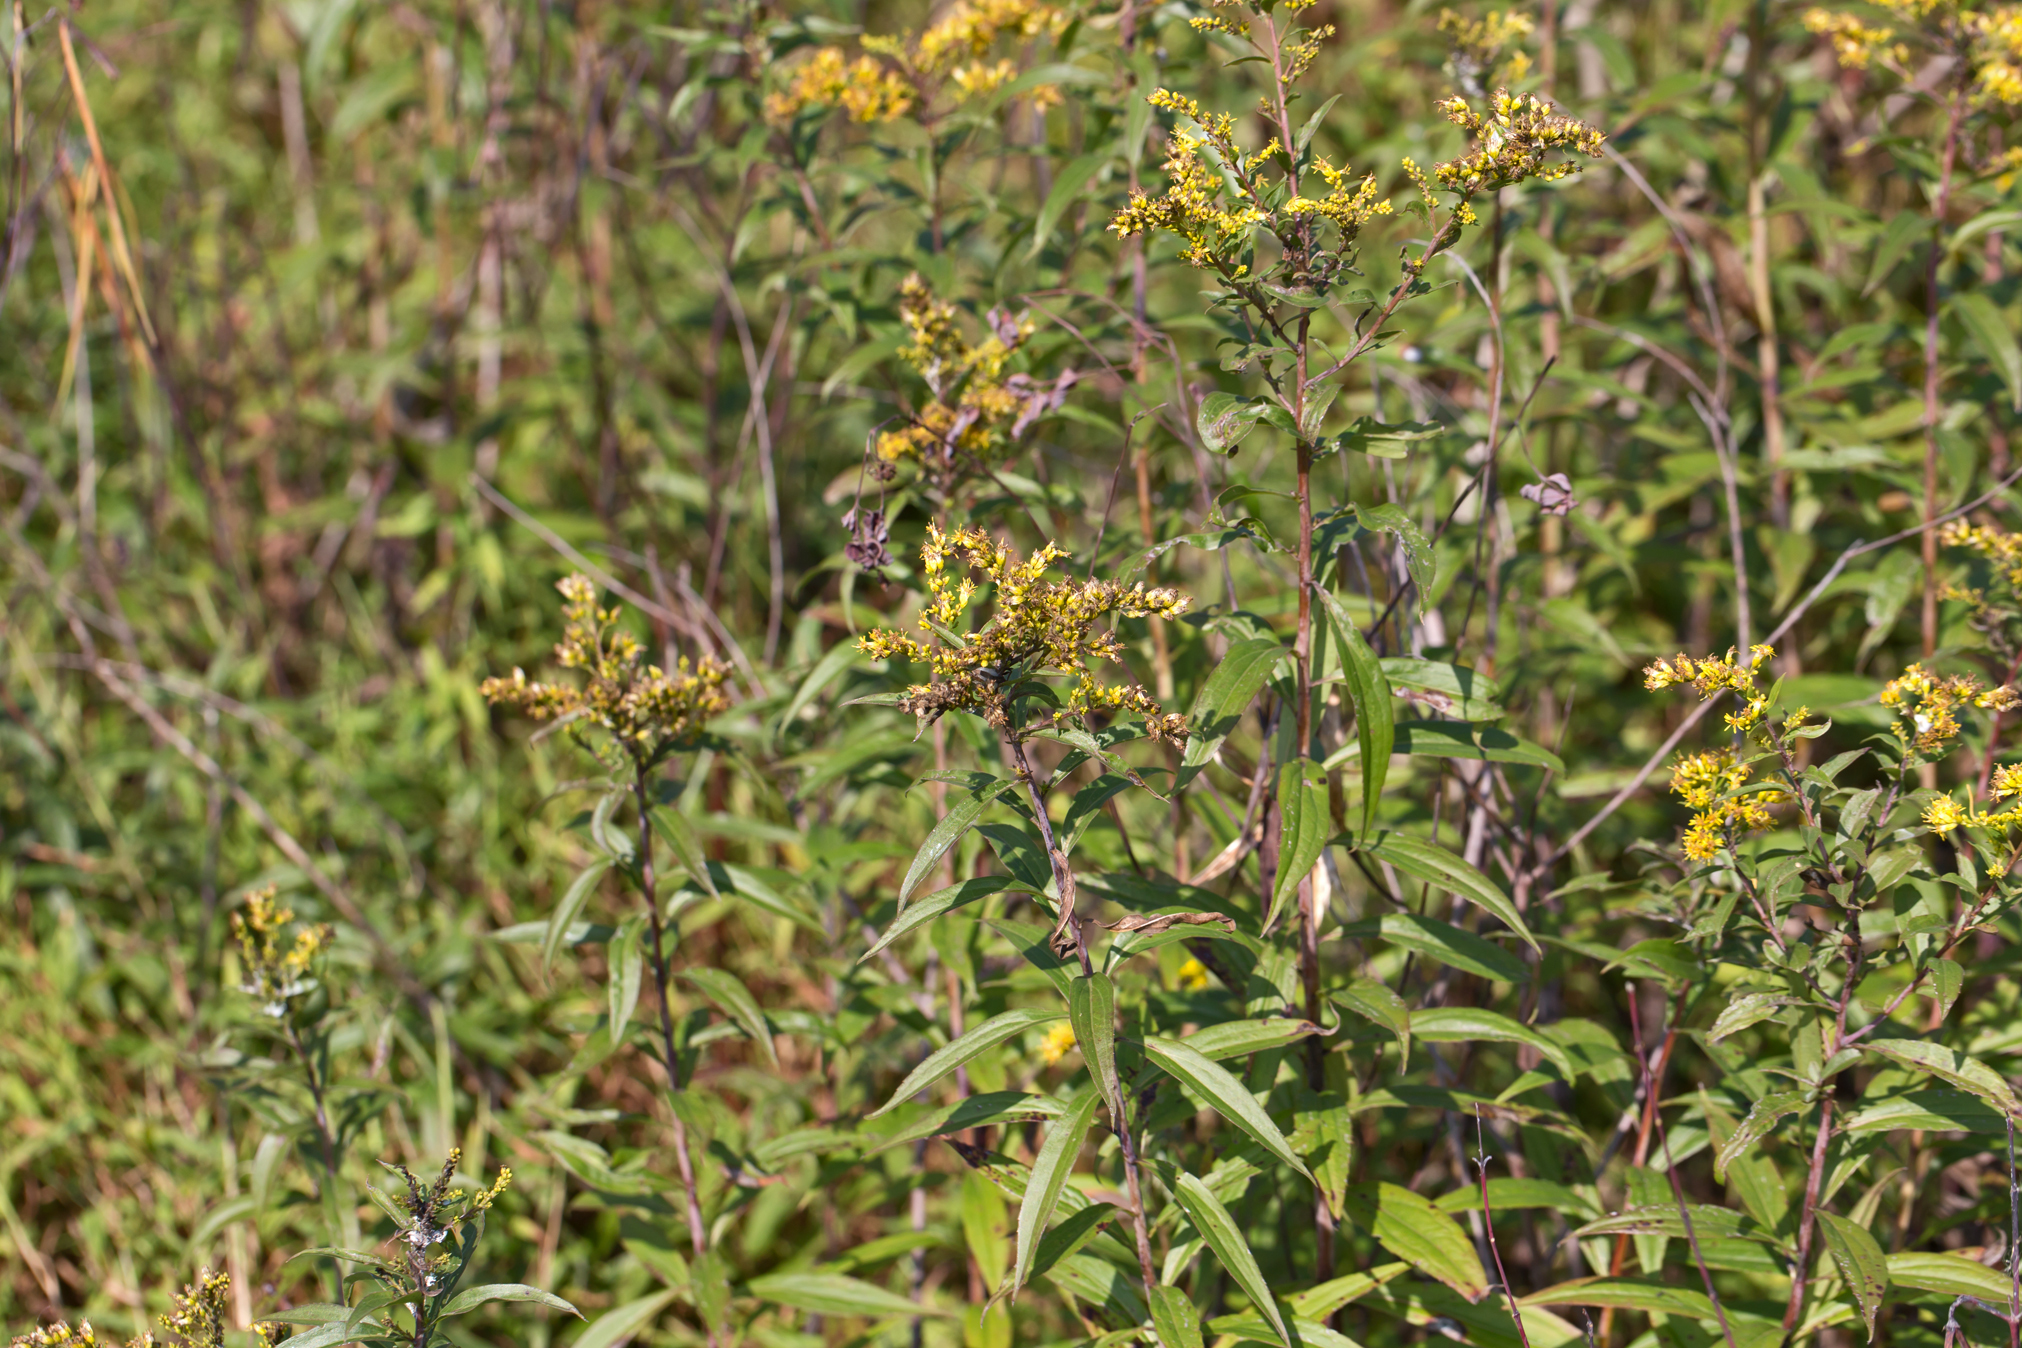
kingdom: Plantae
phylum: Tracheophyta
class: Magnoliopsida
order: Asterales
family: Asteraceae
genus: Solidago
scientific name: Solidago gigantea
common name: Giant goldenrod
